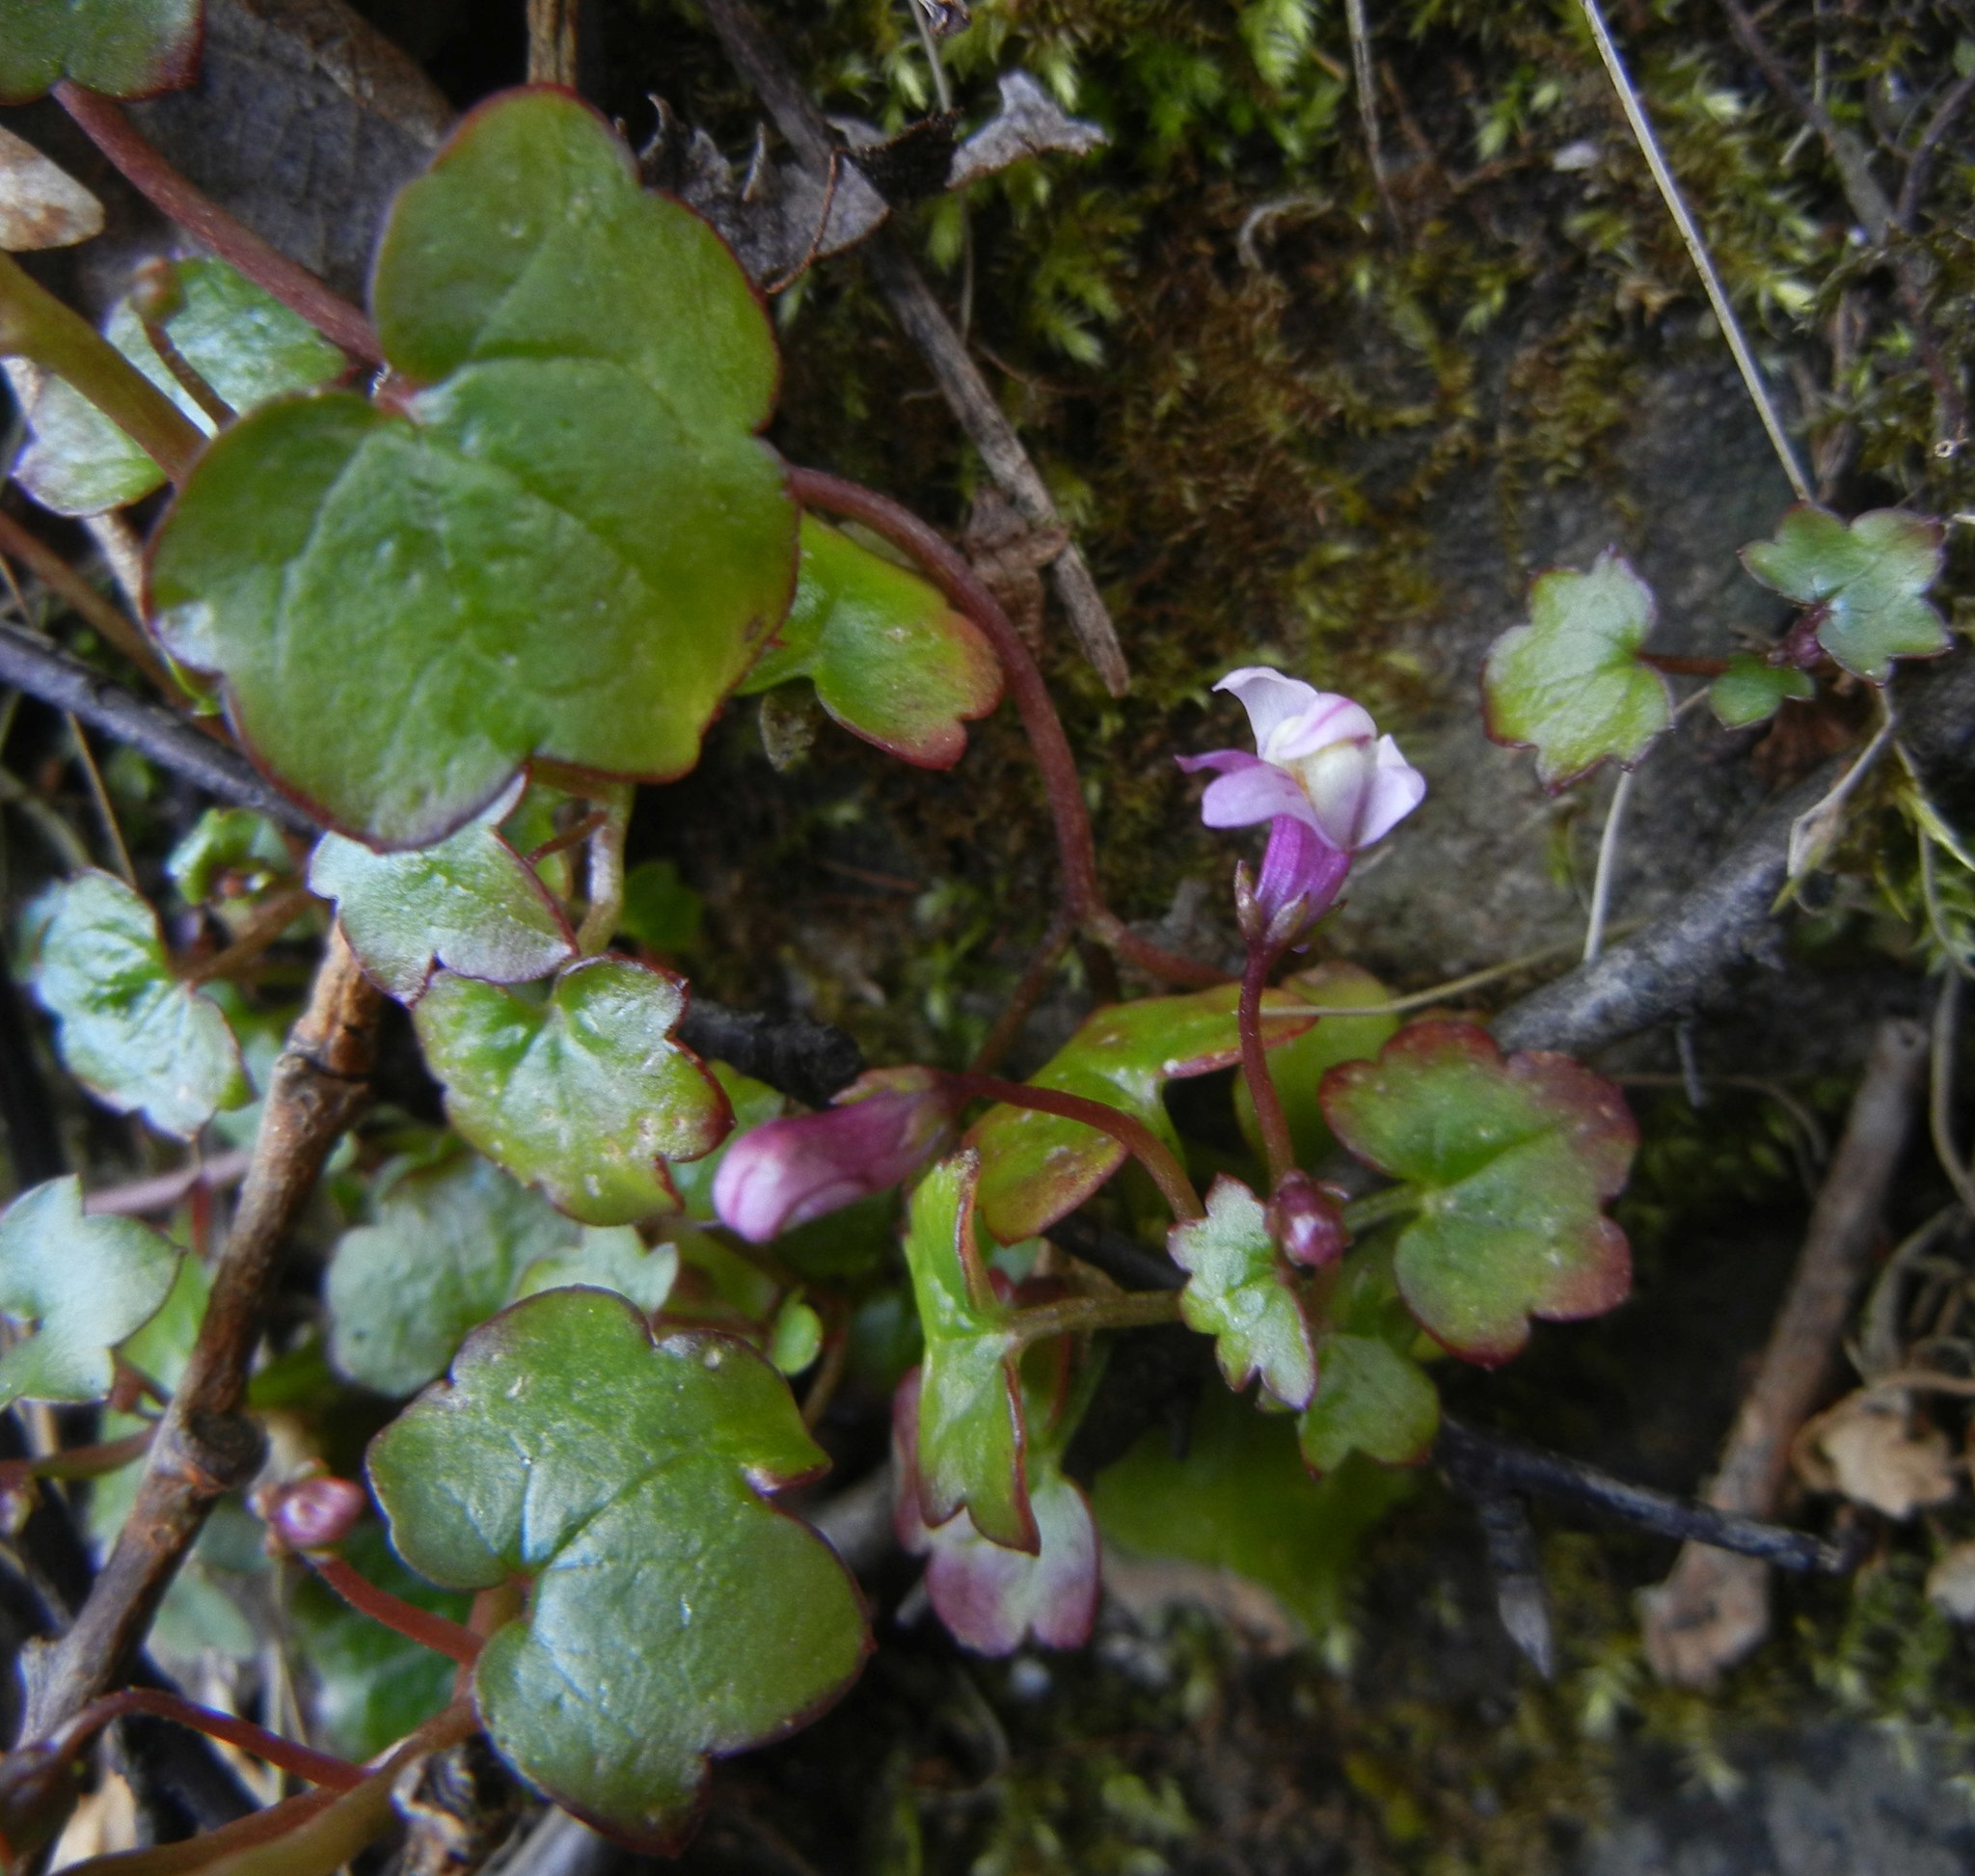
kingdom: Plantae
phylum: Tracheophyta
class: Magnoliopsida
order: Lamiales
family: Plantaginaceae
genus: Cymbalaria
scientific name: Cymbalaria muralis
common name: Ivy-leaved toadflax
